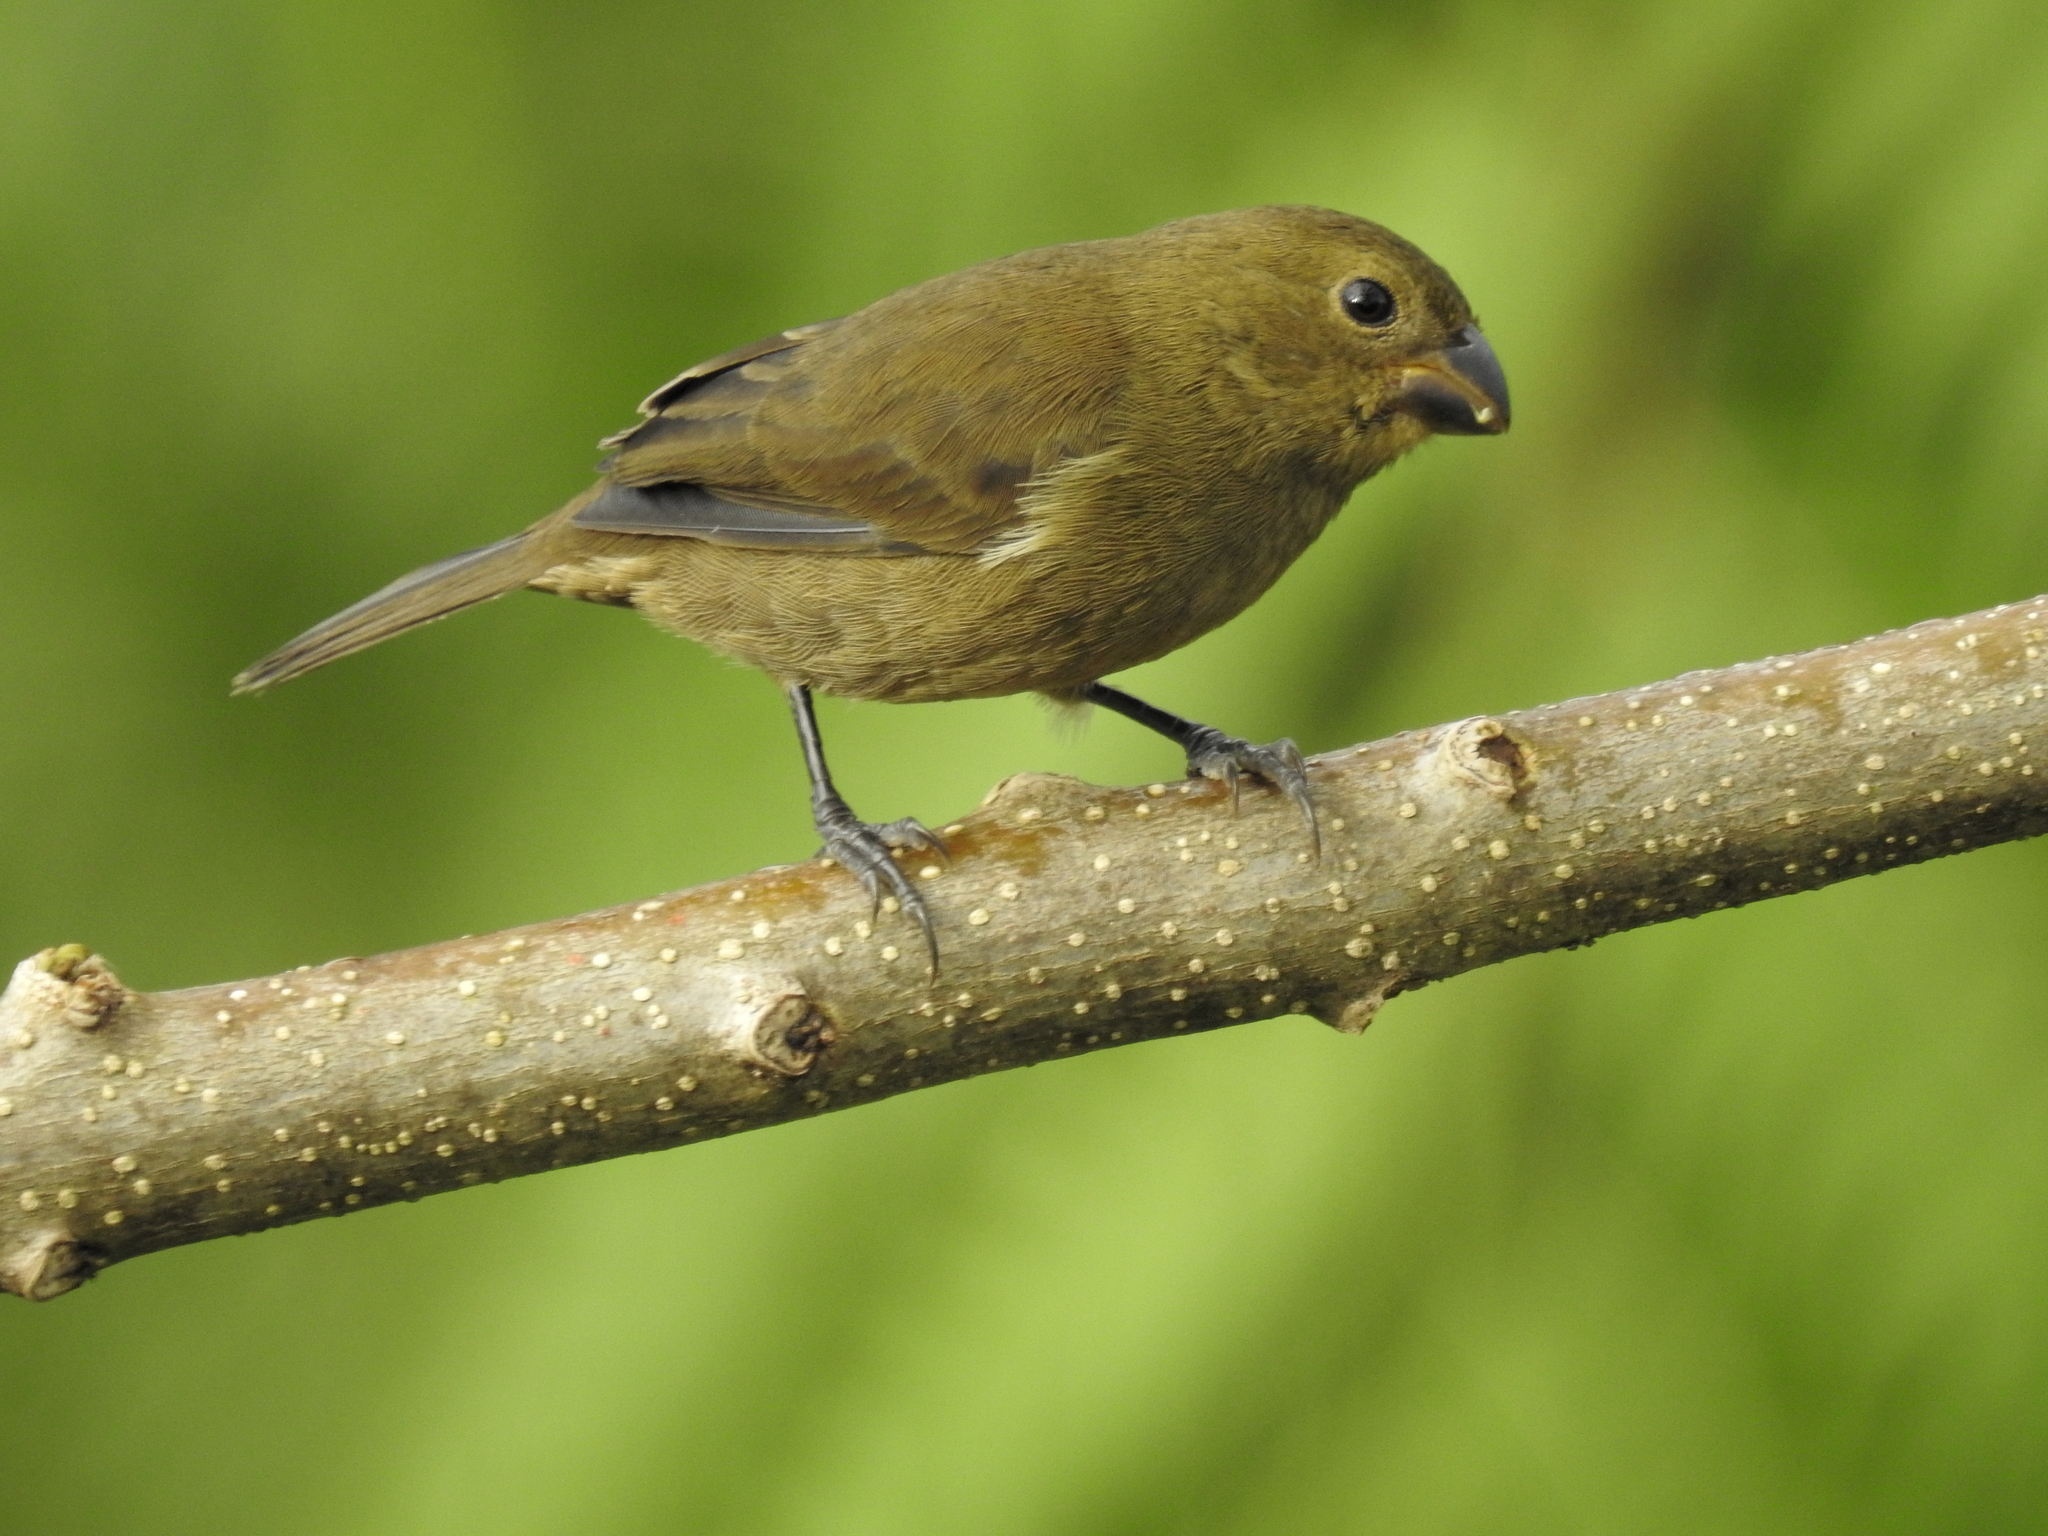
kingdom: Animalia
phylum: Chordata
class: Aves
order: Passeriformes
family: Thraupidae
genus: Sporophila
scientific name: Sporophila corvina
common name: Variable seedeater
